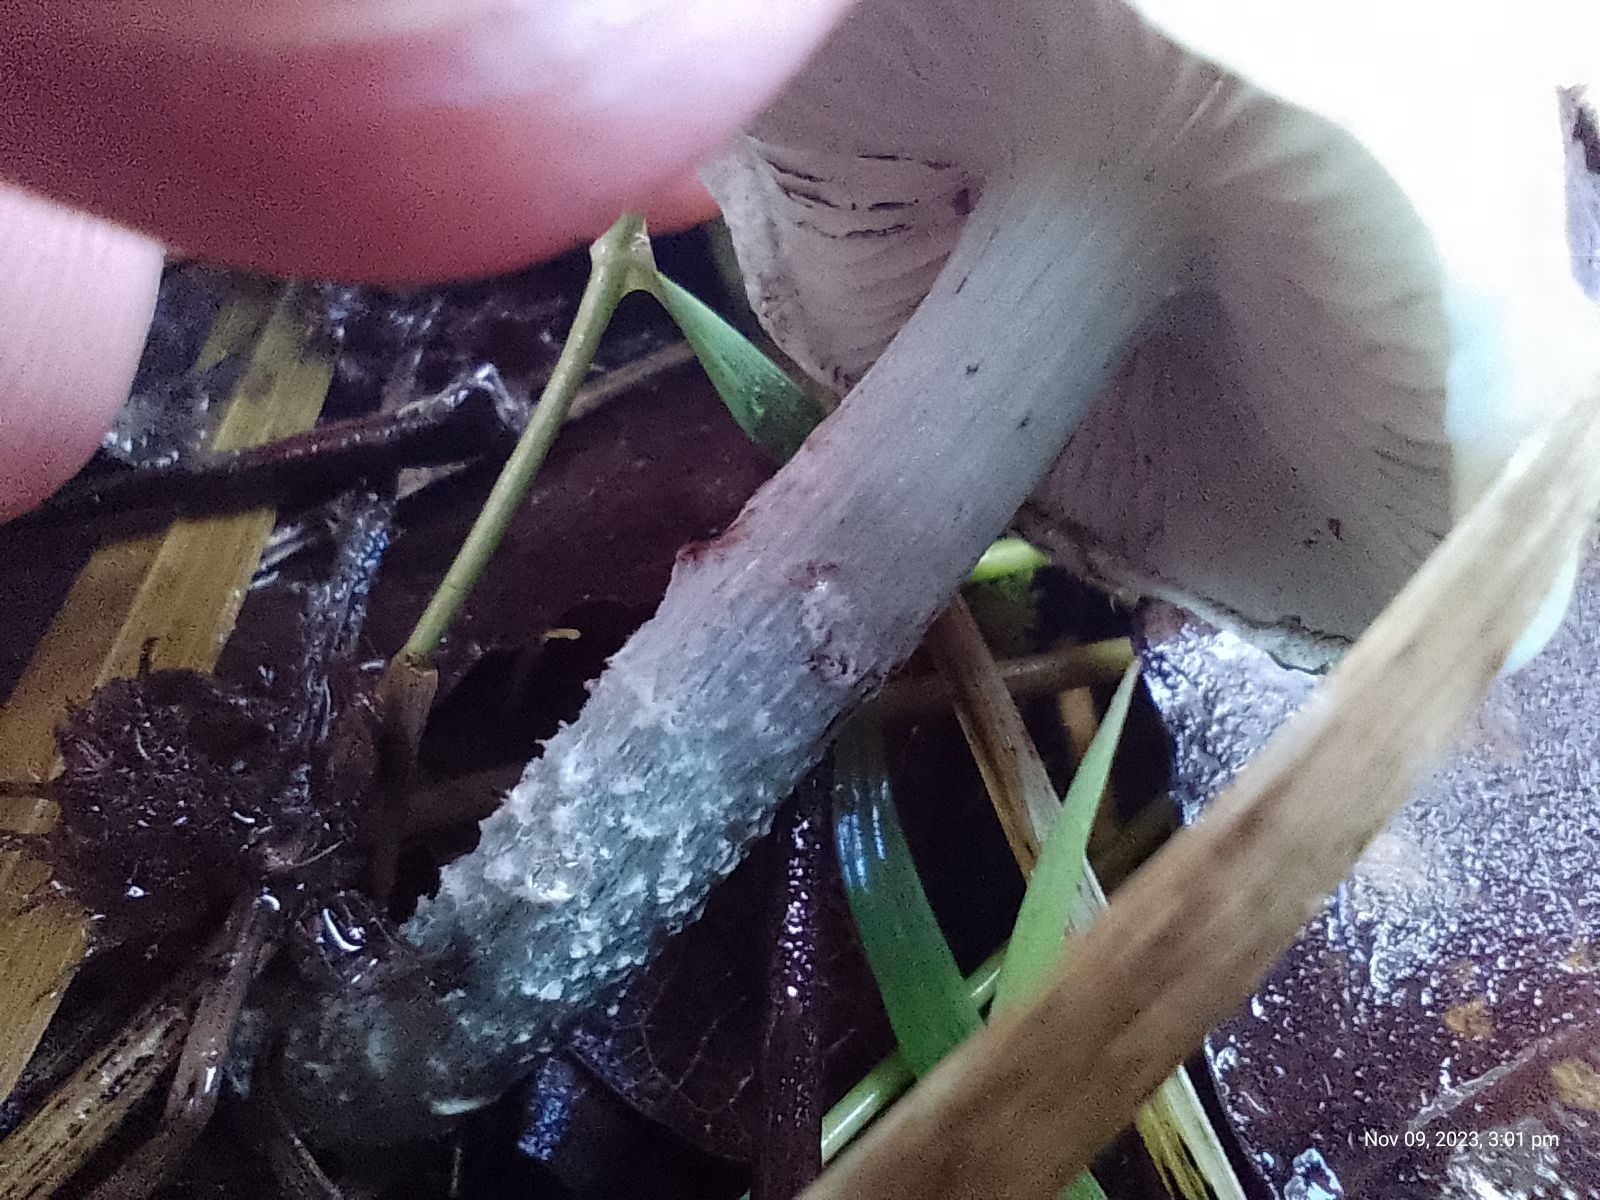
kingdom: Fungi
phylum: Basidiomycota
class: Agaricomycetes
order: Agaricales
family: Strophariaceae
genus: Stropharia
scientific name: Stropharia caerulea
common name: Blue roundhead
